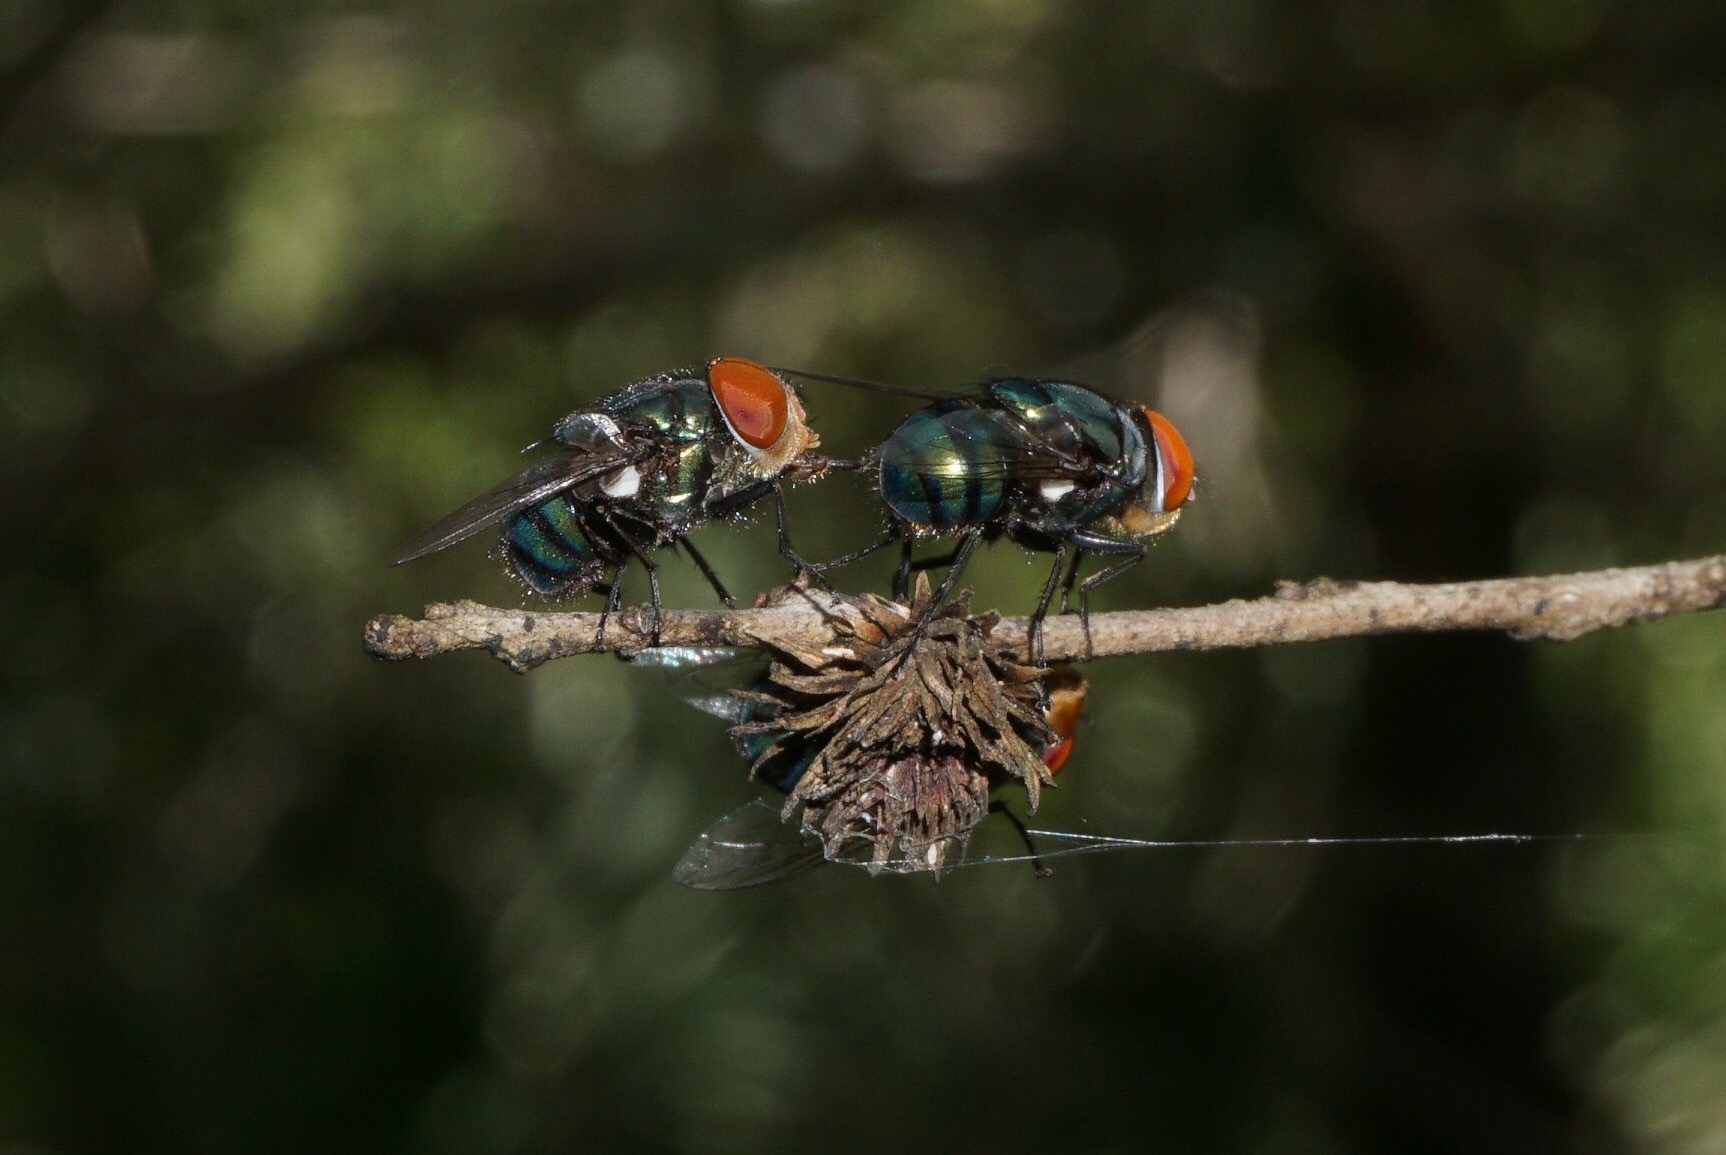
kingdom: Animalia
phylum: Arthropoda
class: Insecta
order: Diptera
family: Calliphoridae
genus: Chrysomya
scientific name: Chrysomya megacephala
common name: Blow fly
